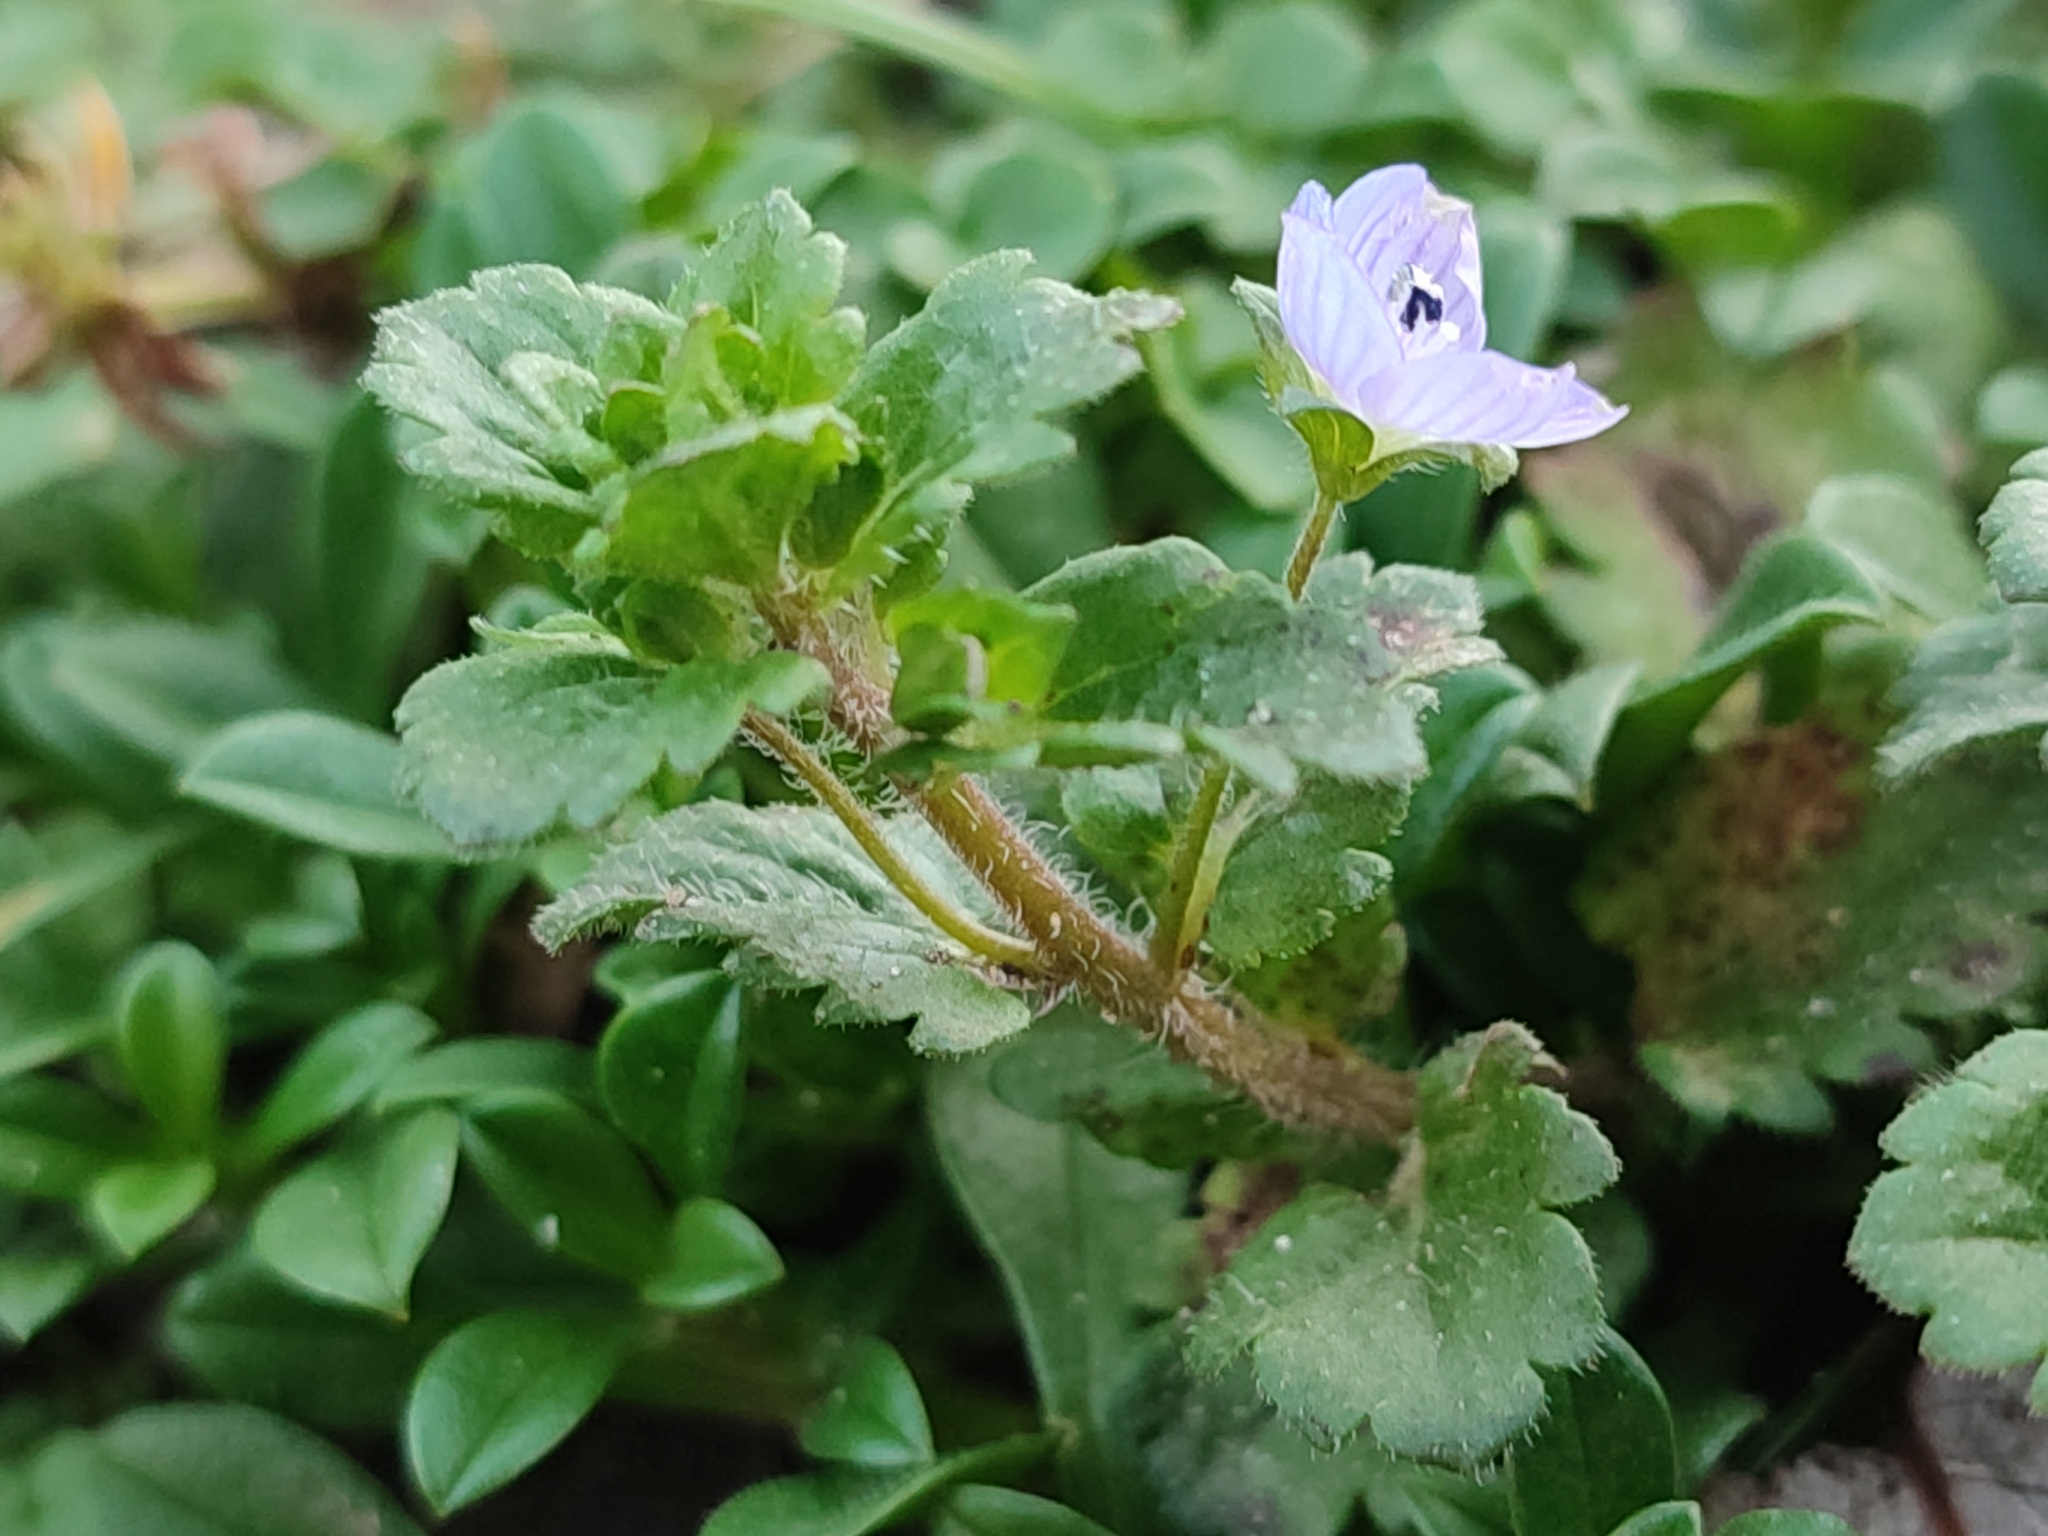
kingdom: Plantae
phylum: Tracheophyta
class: Magnoliopsida
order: Lamiales
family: Plantaginaceae
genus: Veronica
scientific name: Veronica persica
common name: Common field-speedwell
